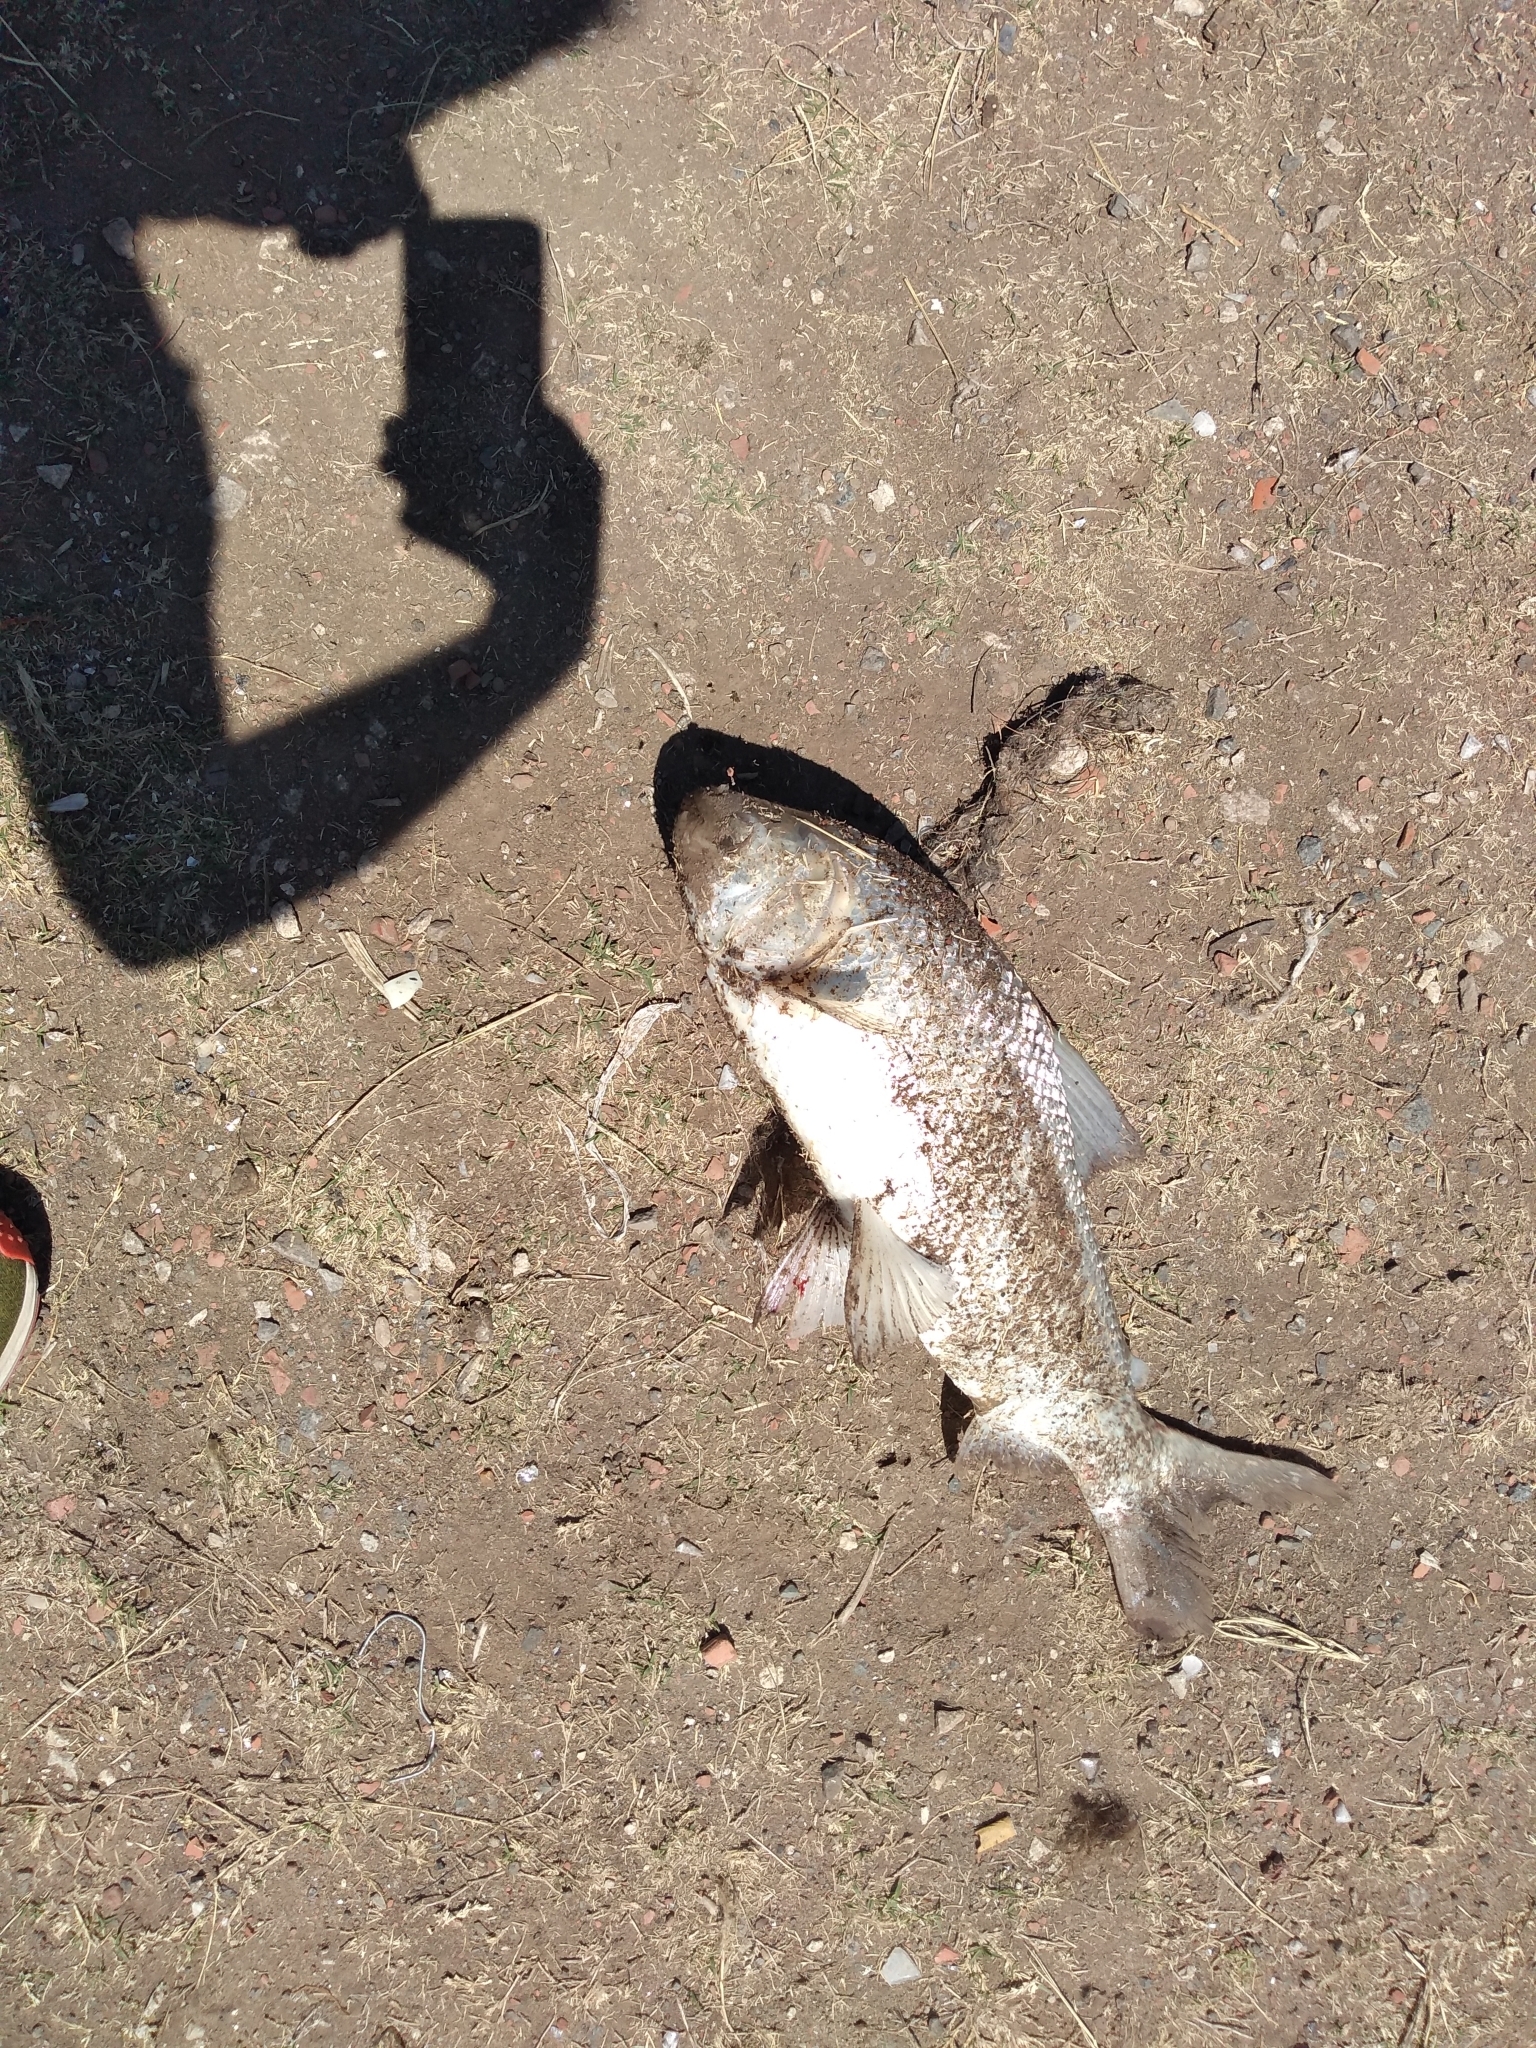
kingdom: Animalia
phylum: Chordata
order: Characiformes
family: Prochilodontidae
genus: Prochilodus
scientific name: Prochilodus lineatus
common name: Curimbata
